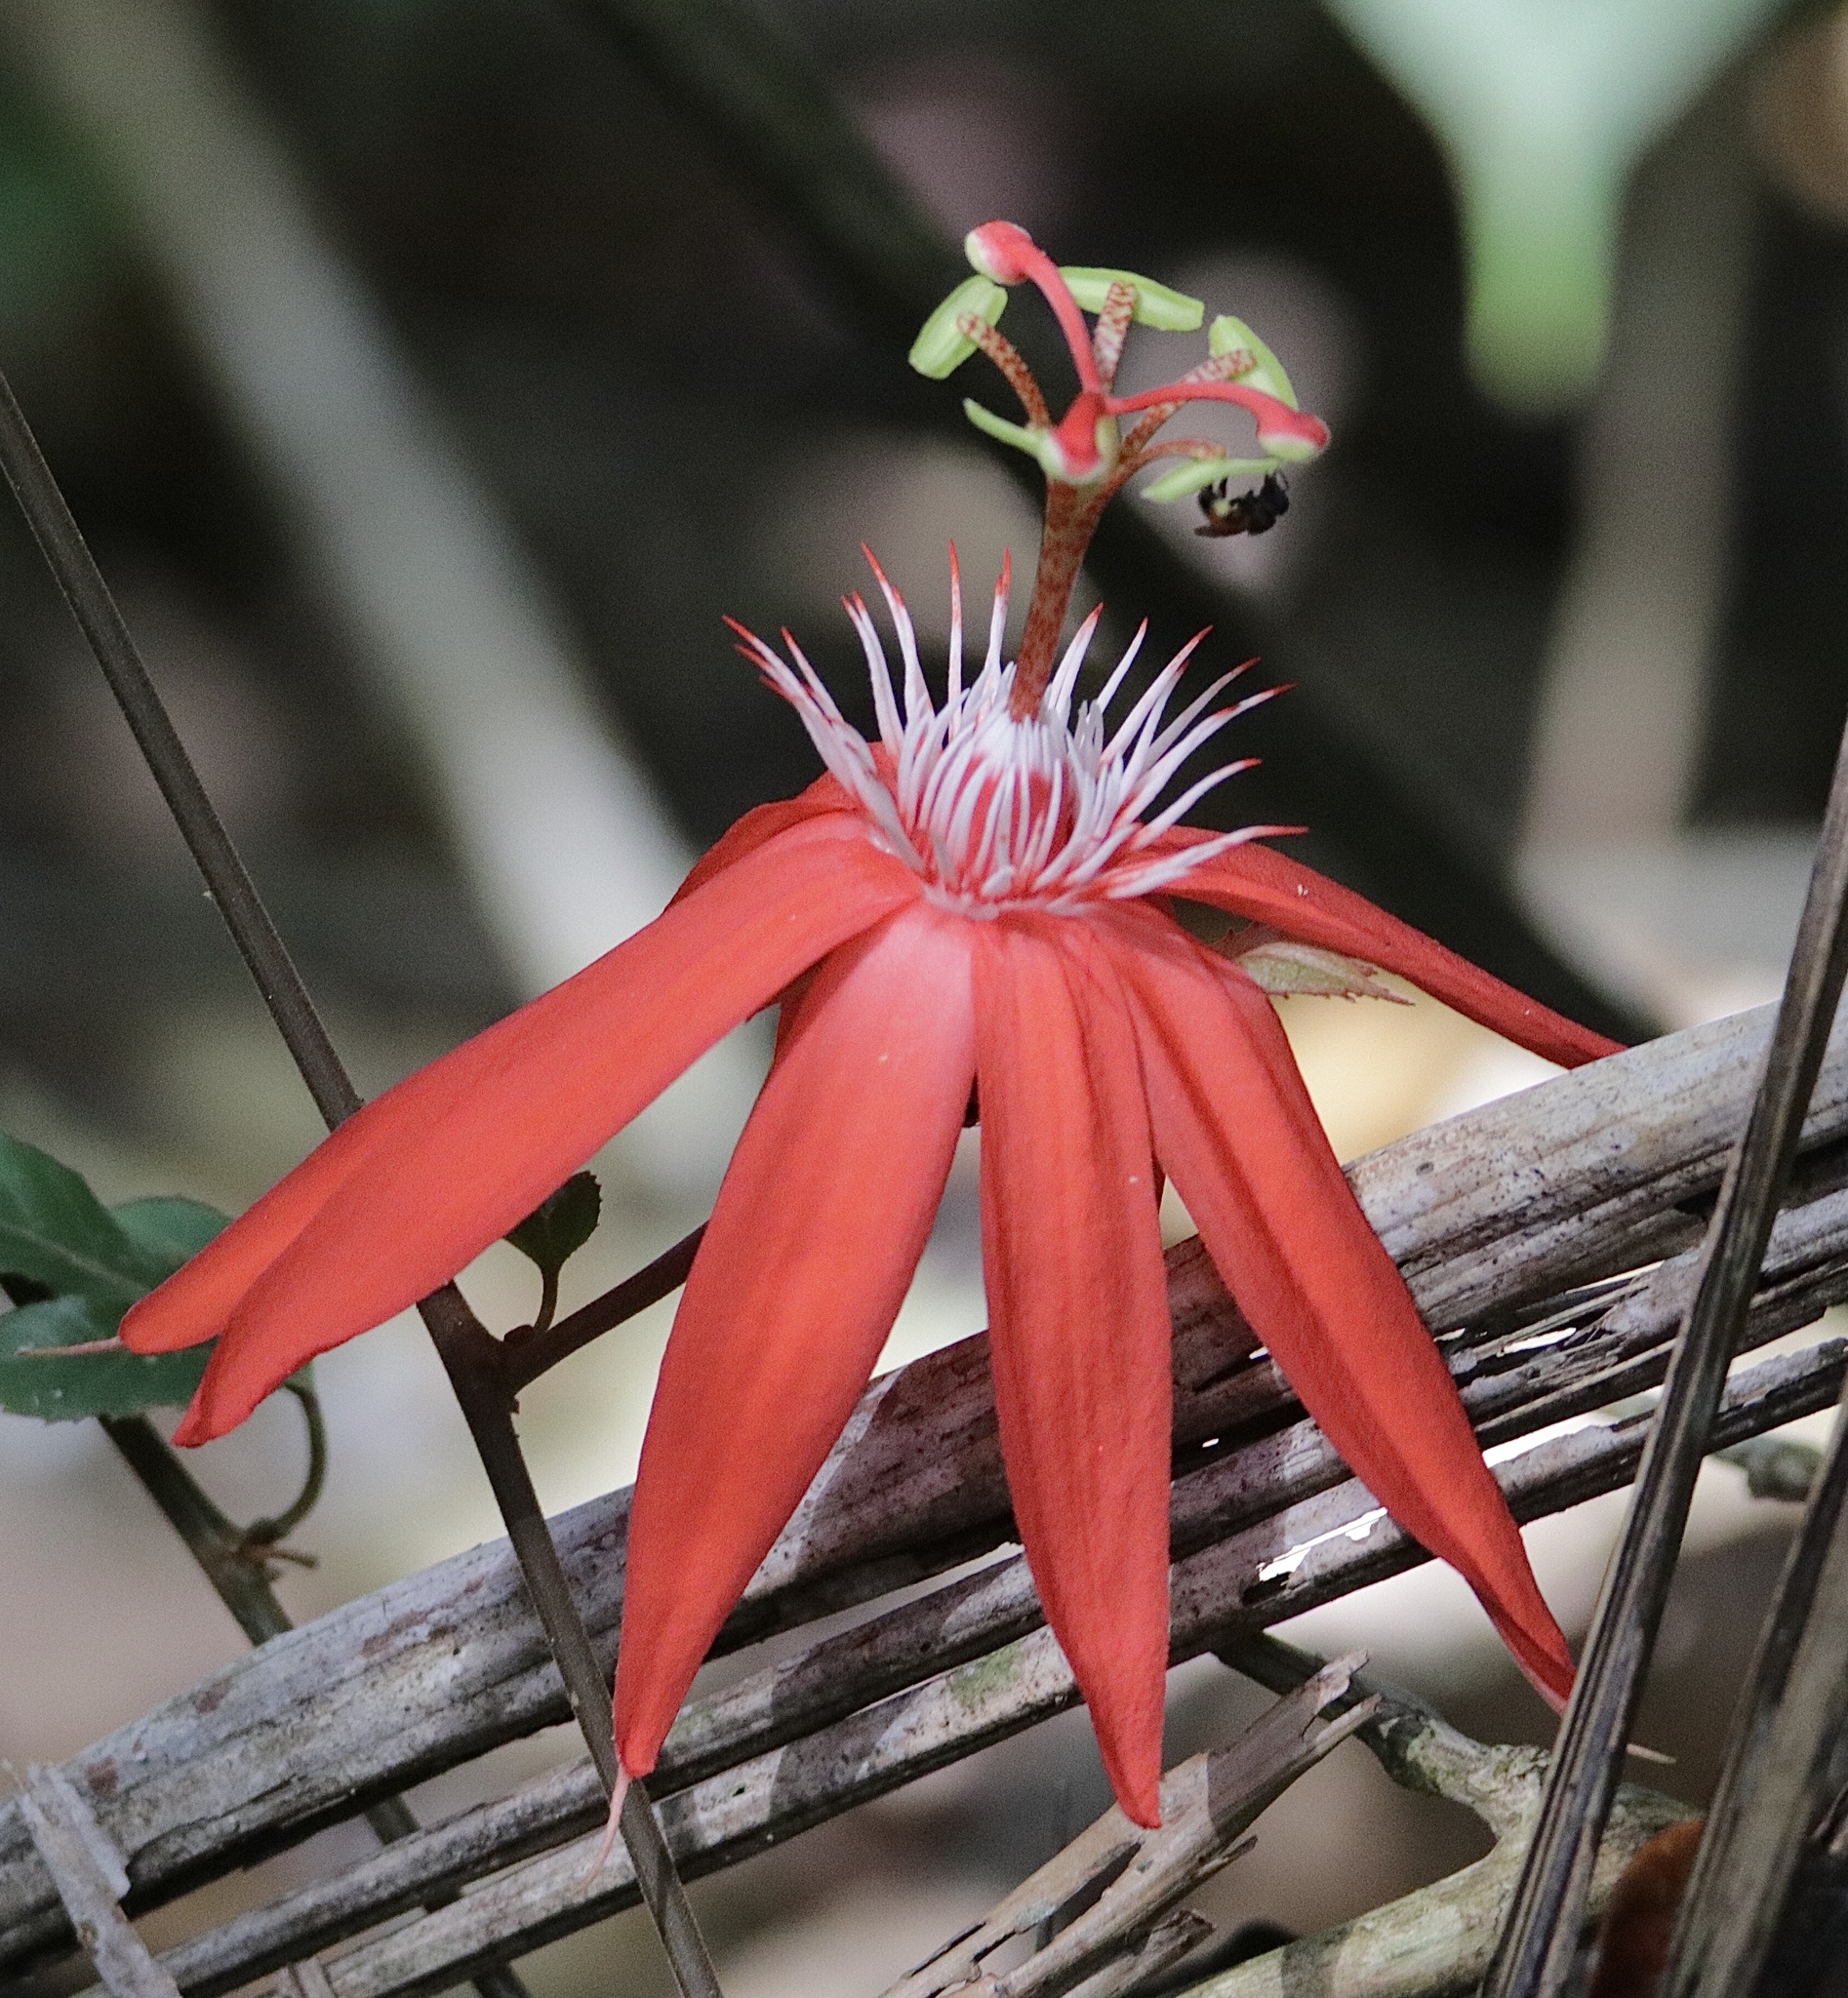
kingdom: Plantae
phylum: Tracheophyta
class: Magnoliopsida
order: Malpighiales
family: Passifloraceae
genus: Passiflora
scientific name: Passiflora vitifolia
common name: Perfumed passionflower
